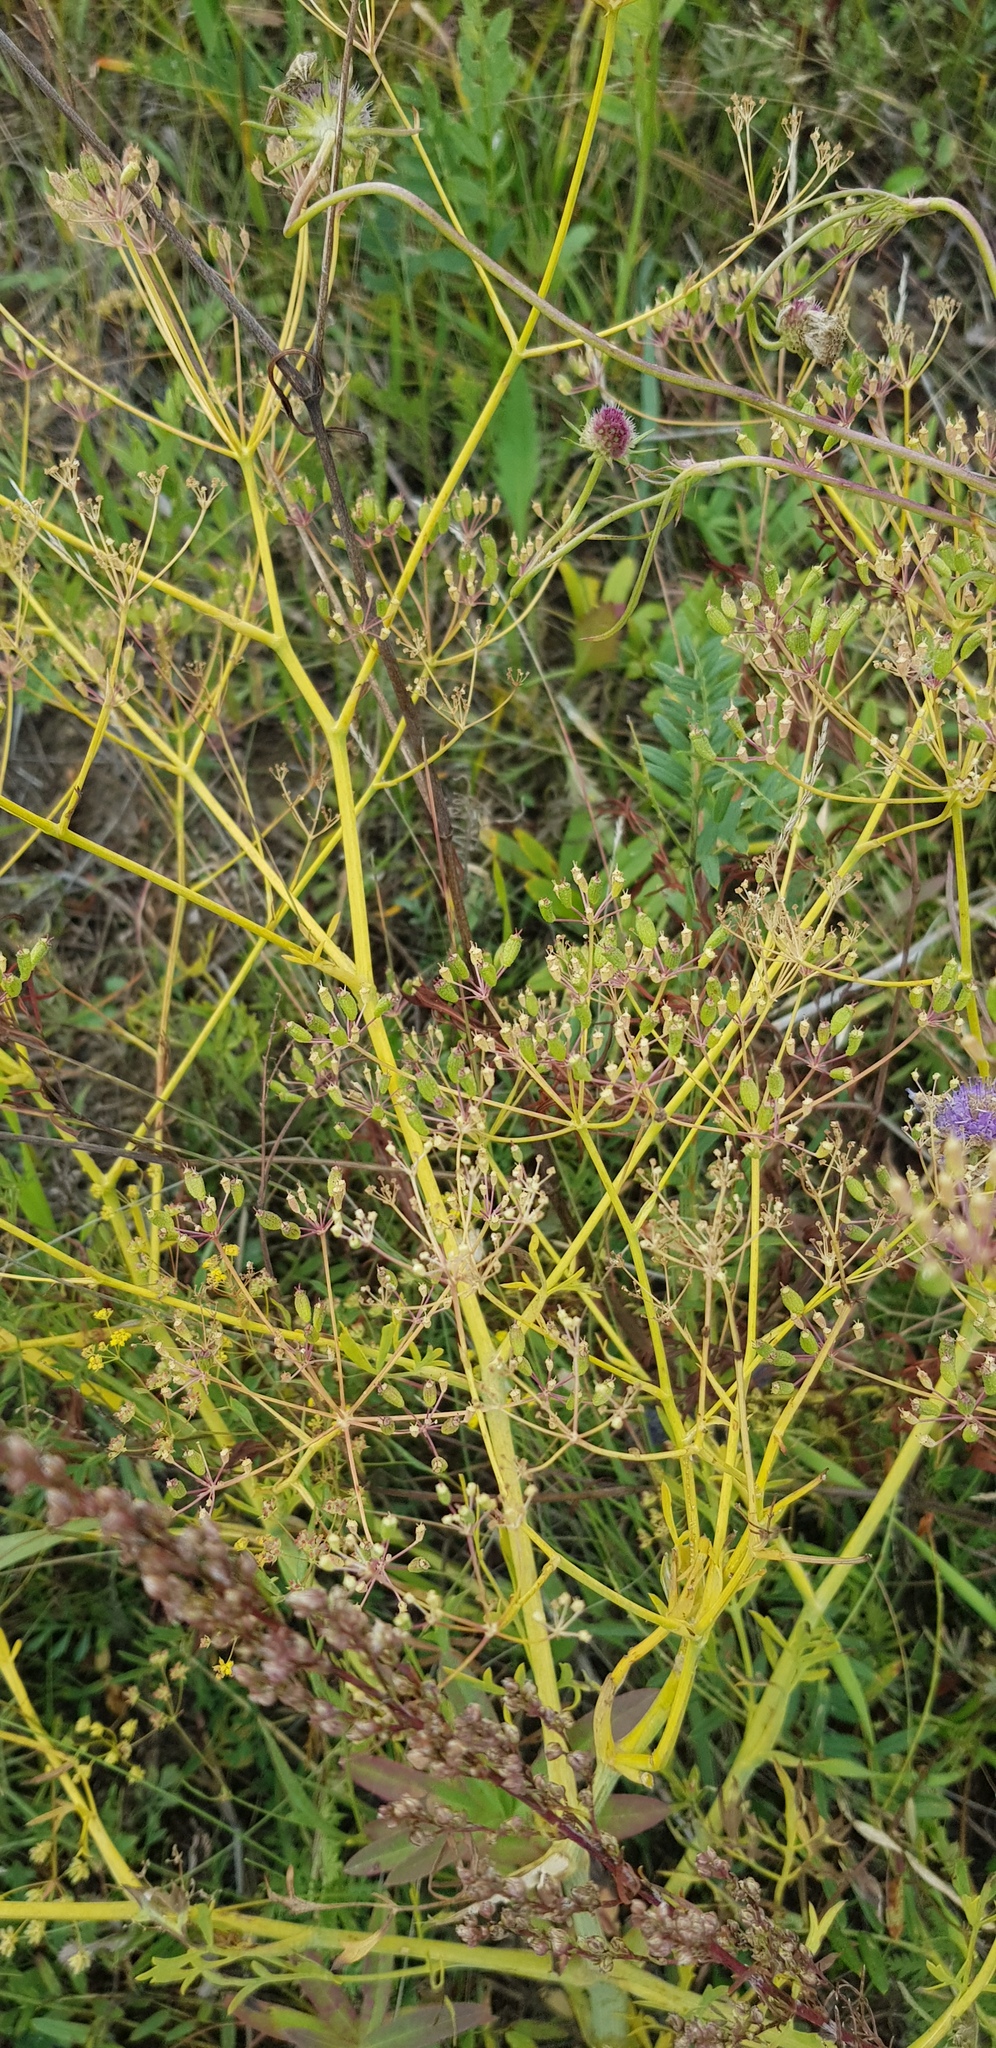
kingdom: Plantae
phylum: Tracheophyta
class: Magnoliopsida
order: Apiales
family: Apiaceae
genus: Saposhnikovia
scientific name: Saposhnikovia divaricata
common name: Siler
